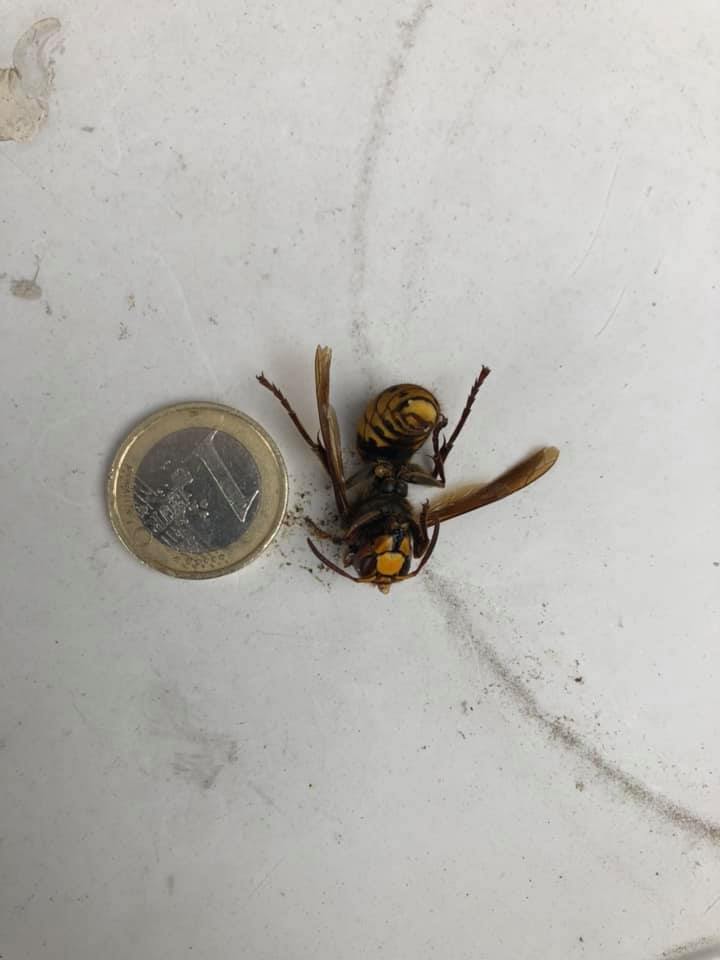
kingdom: Animalia
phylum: Arthropoda
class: Insecta
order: Hymenoptera
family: Vespidae
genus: Vespa
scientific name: Vespa crabro
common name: Hornet
